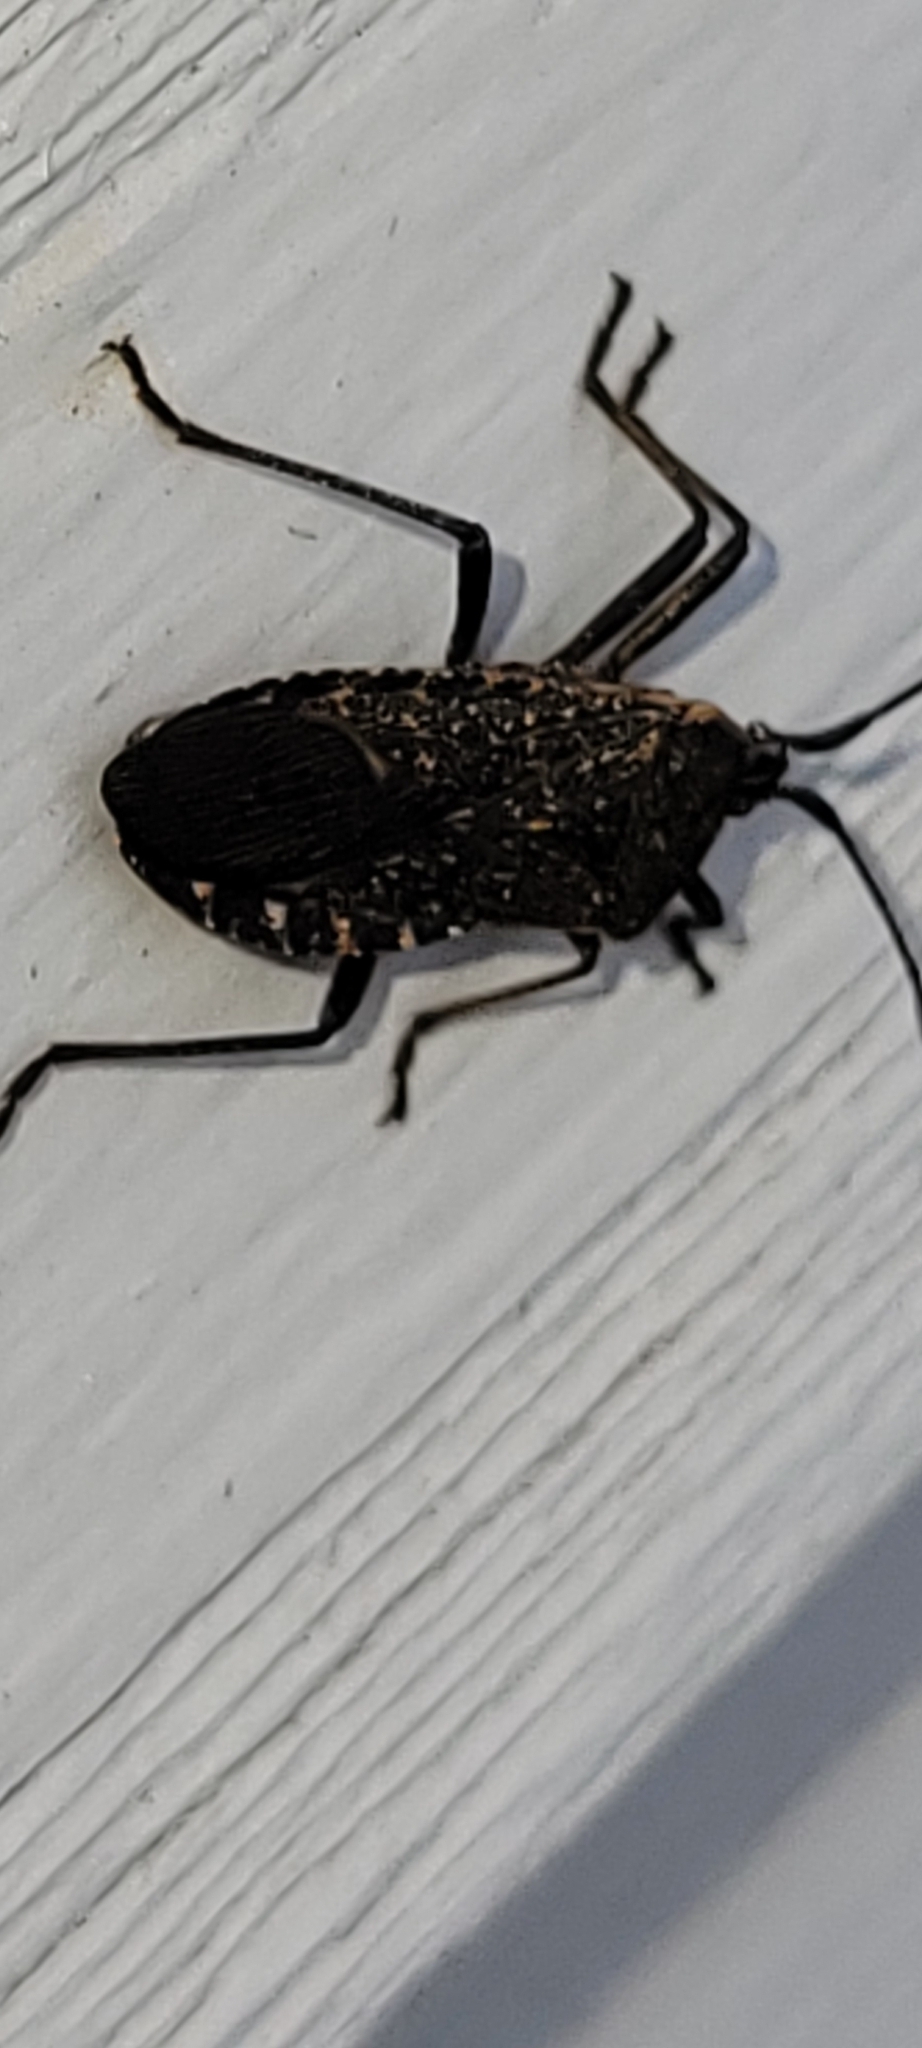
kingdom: Animalia
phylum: Arthropoda
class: Insecta
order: Hemiptera
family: Coreidae
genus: Anasa
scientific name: Anasa tristis
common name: Squash bug
